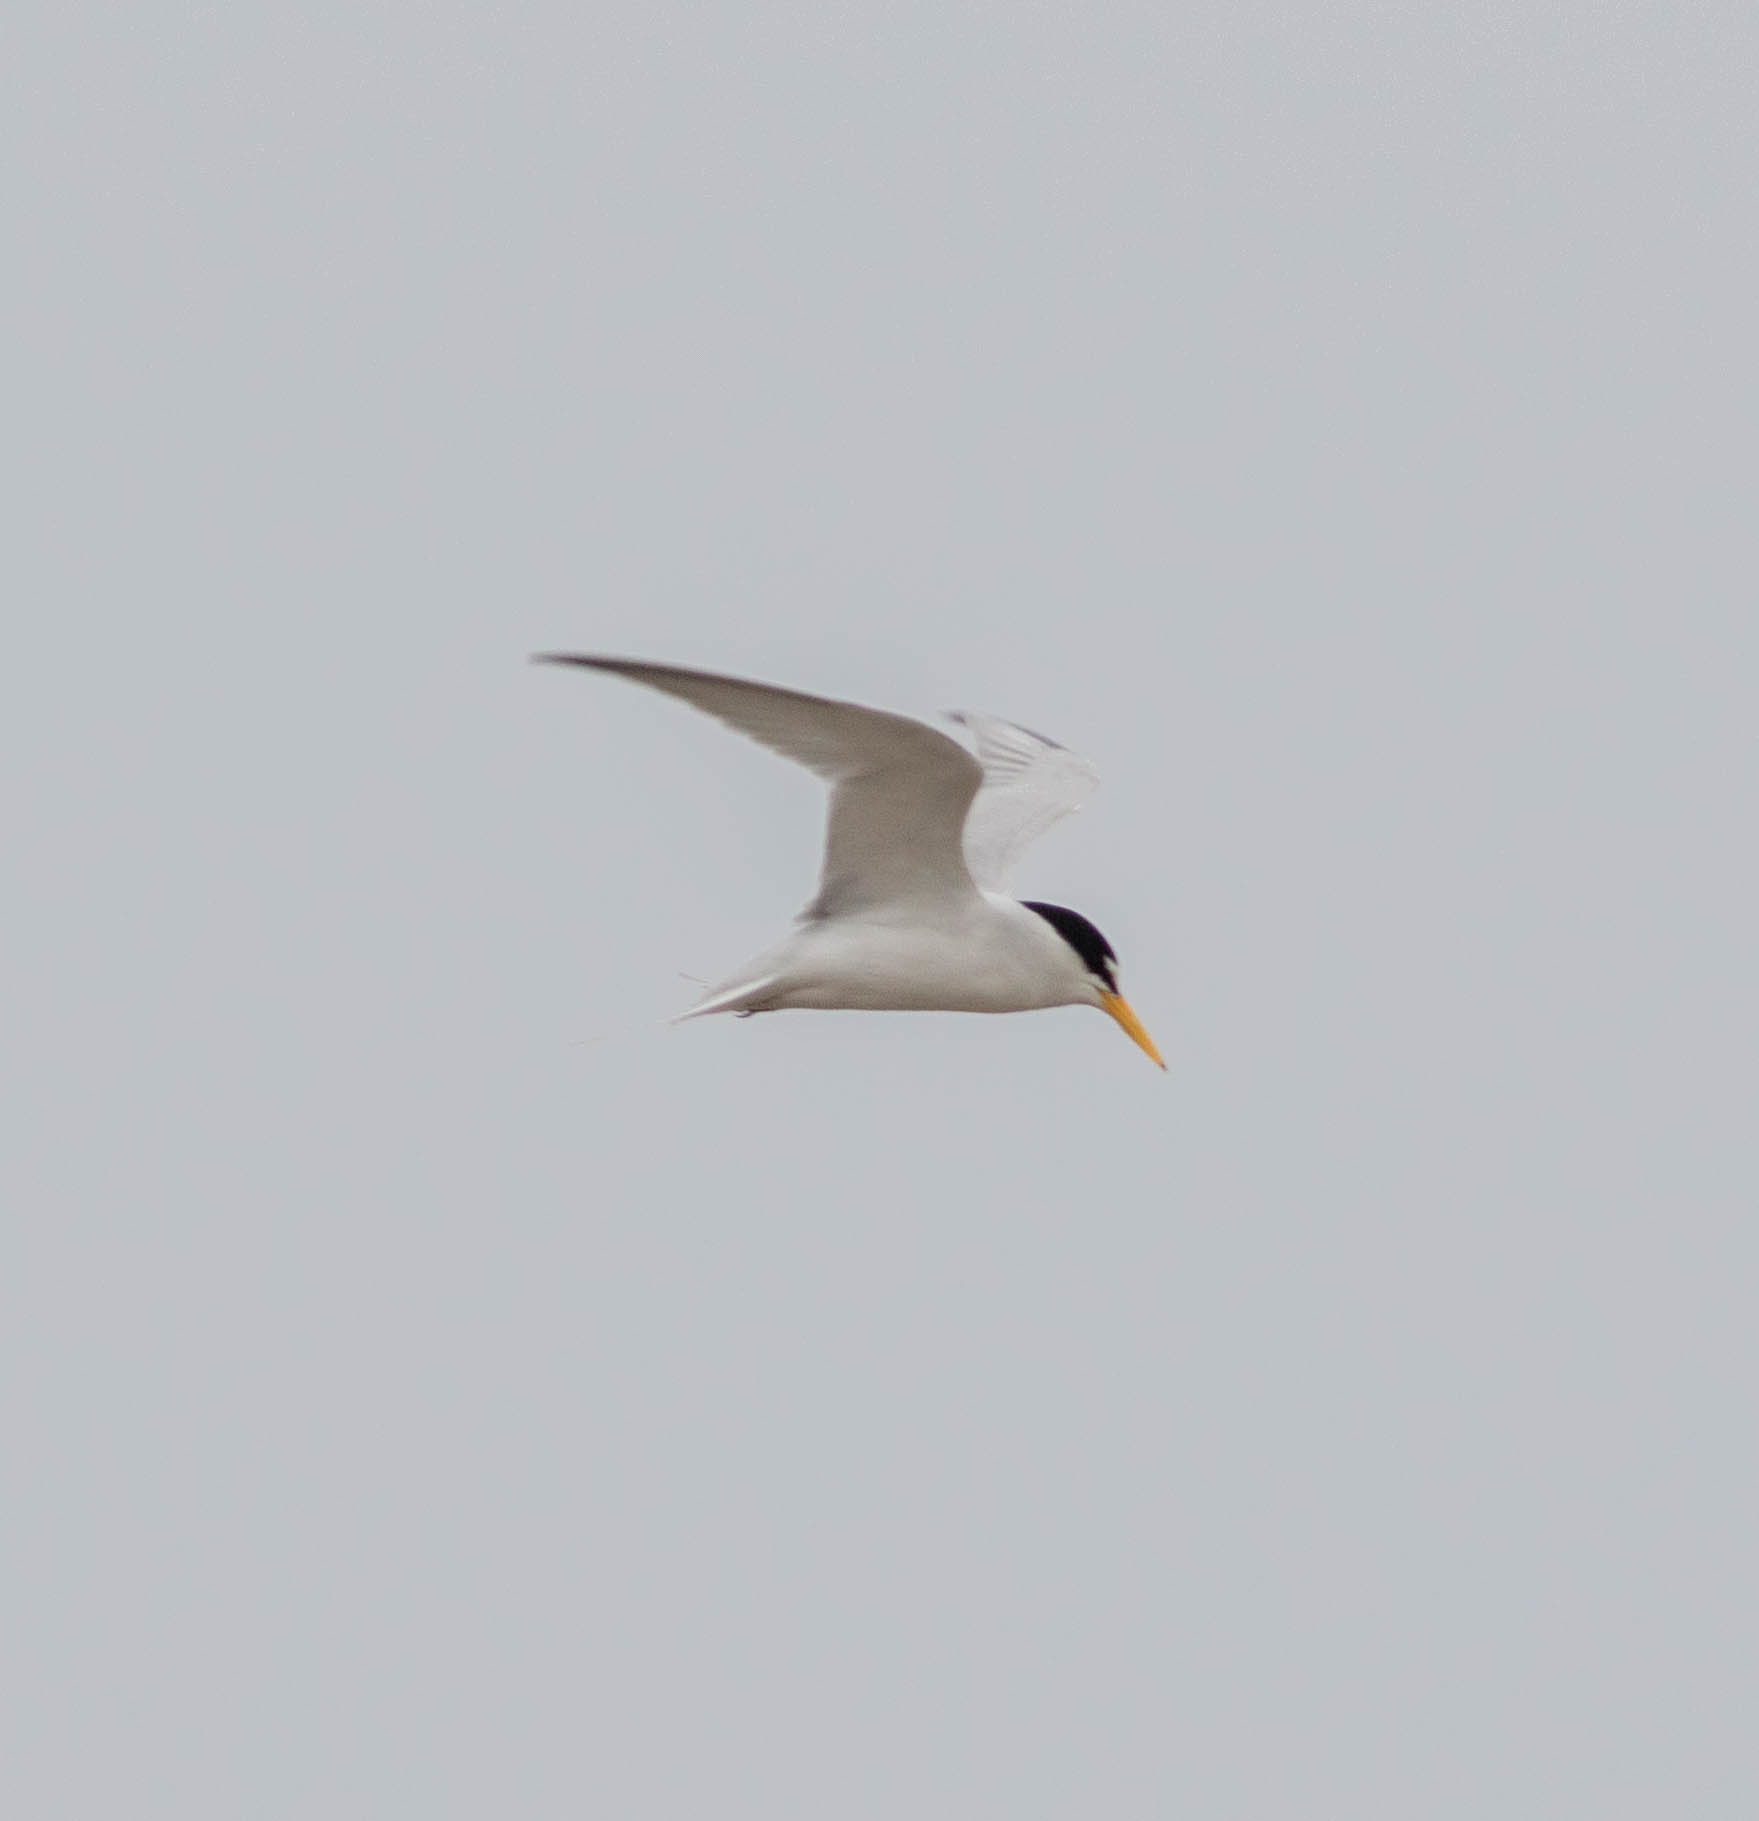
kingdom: Animalia
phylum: Chordata
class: Aves
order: Charadriiformes
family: Laridae
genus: Sternula
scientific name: Sternula antillarum
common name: Least tern
